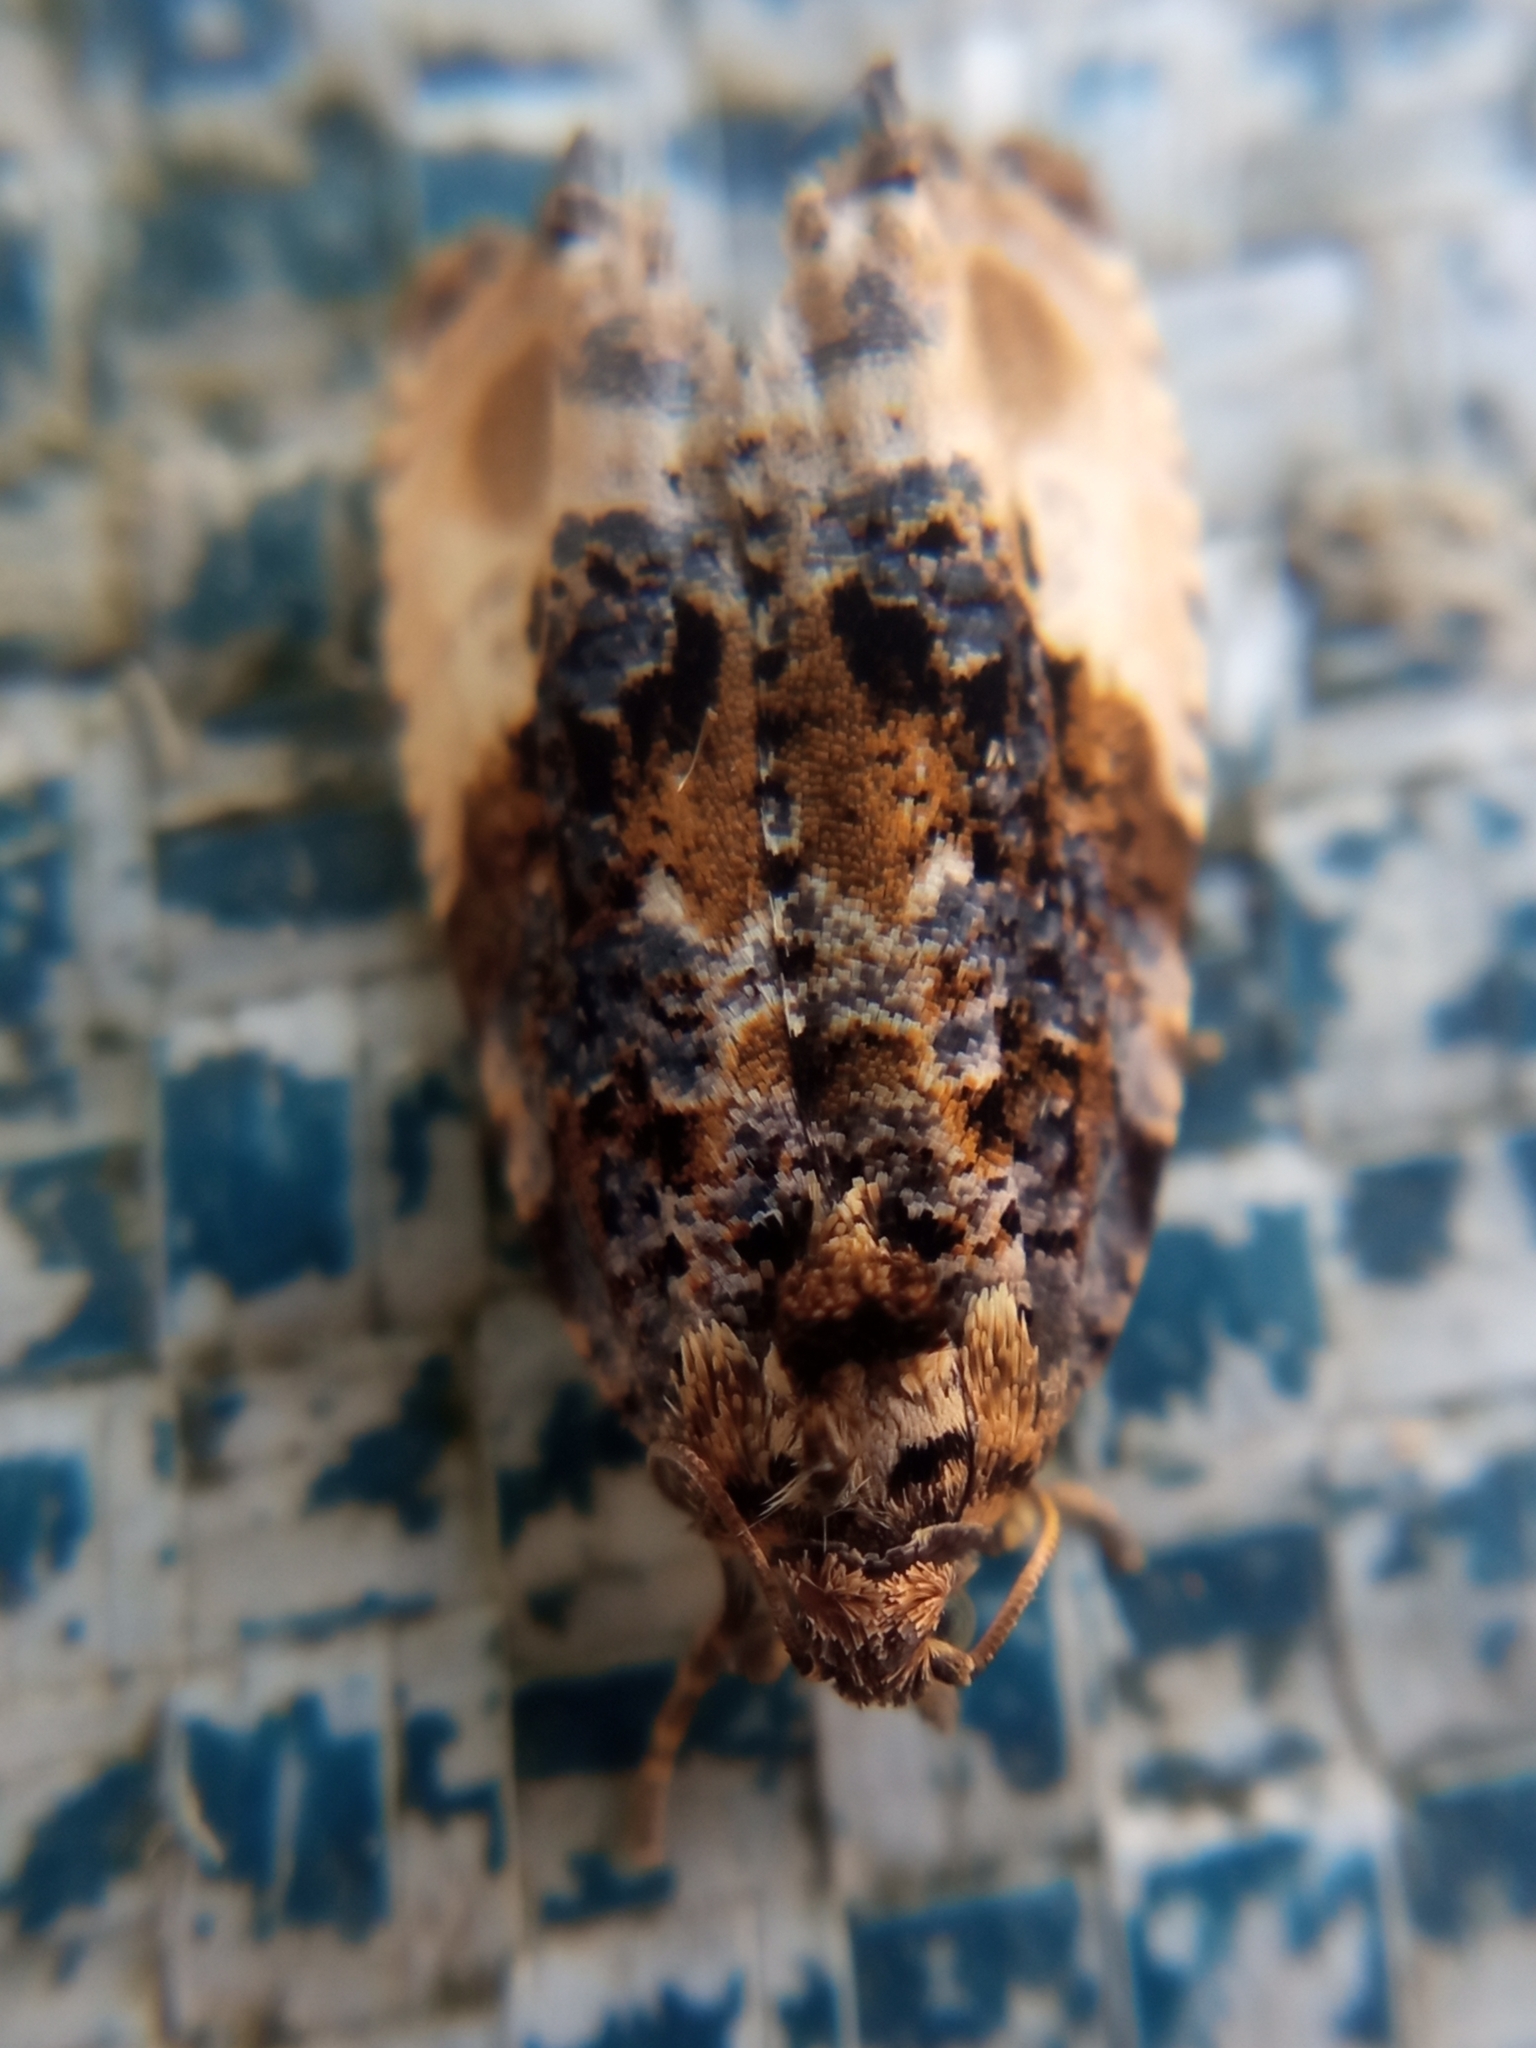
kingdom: Animalia
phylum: Arthropoda
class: Insecta
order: Lepidoptera
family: Tortricidae
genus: Hedya
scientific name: Hedya nubiferana
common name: Marbled orchard tortrix
